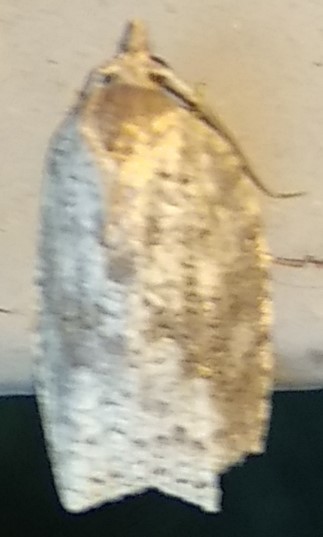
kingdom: Animalia
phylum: Arthropoda
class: Insecta
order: Lepidoptera
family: Tortricidae
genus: Amorbia
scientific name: Amorbia humerosana
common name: White-lined leafroller moth
